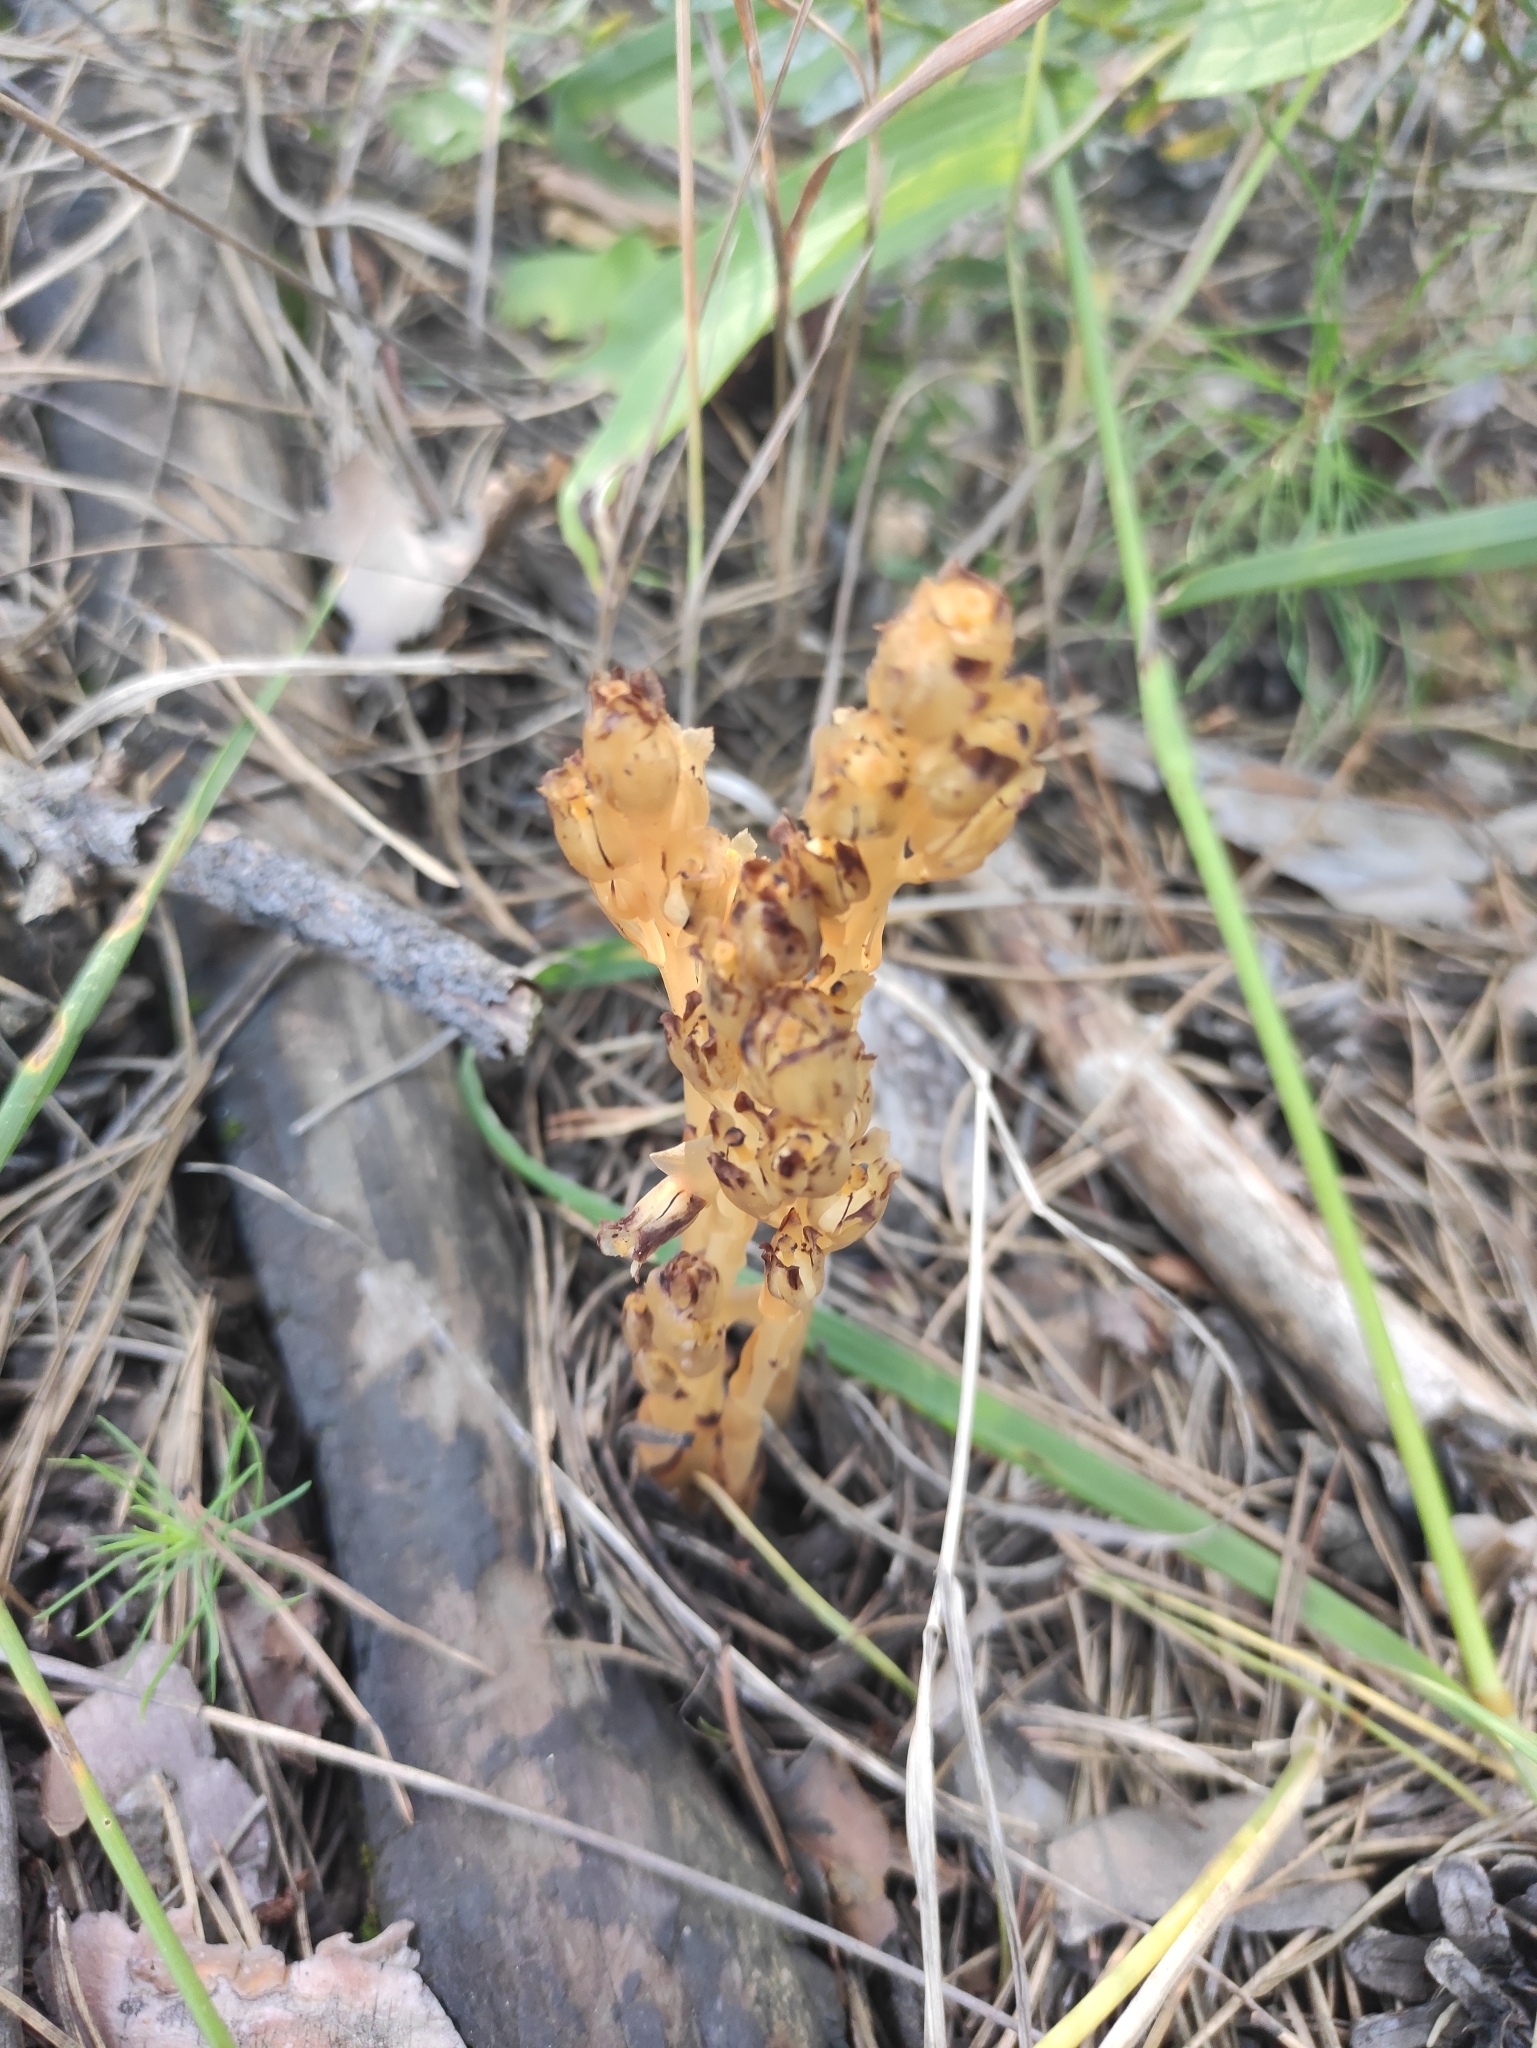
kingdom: Plantae
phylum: Tracheophyta
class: Magnoliopsida
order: Ericales
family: Ericaceae
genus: Hypopitys
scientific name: Hypopitys monotropa
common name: Yellow bird's-nest
